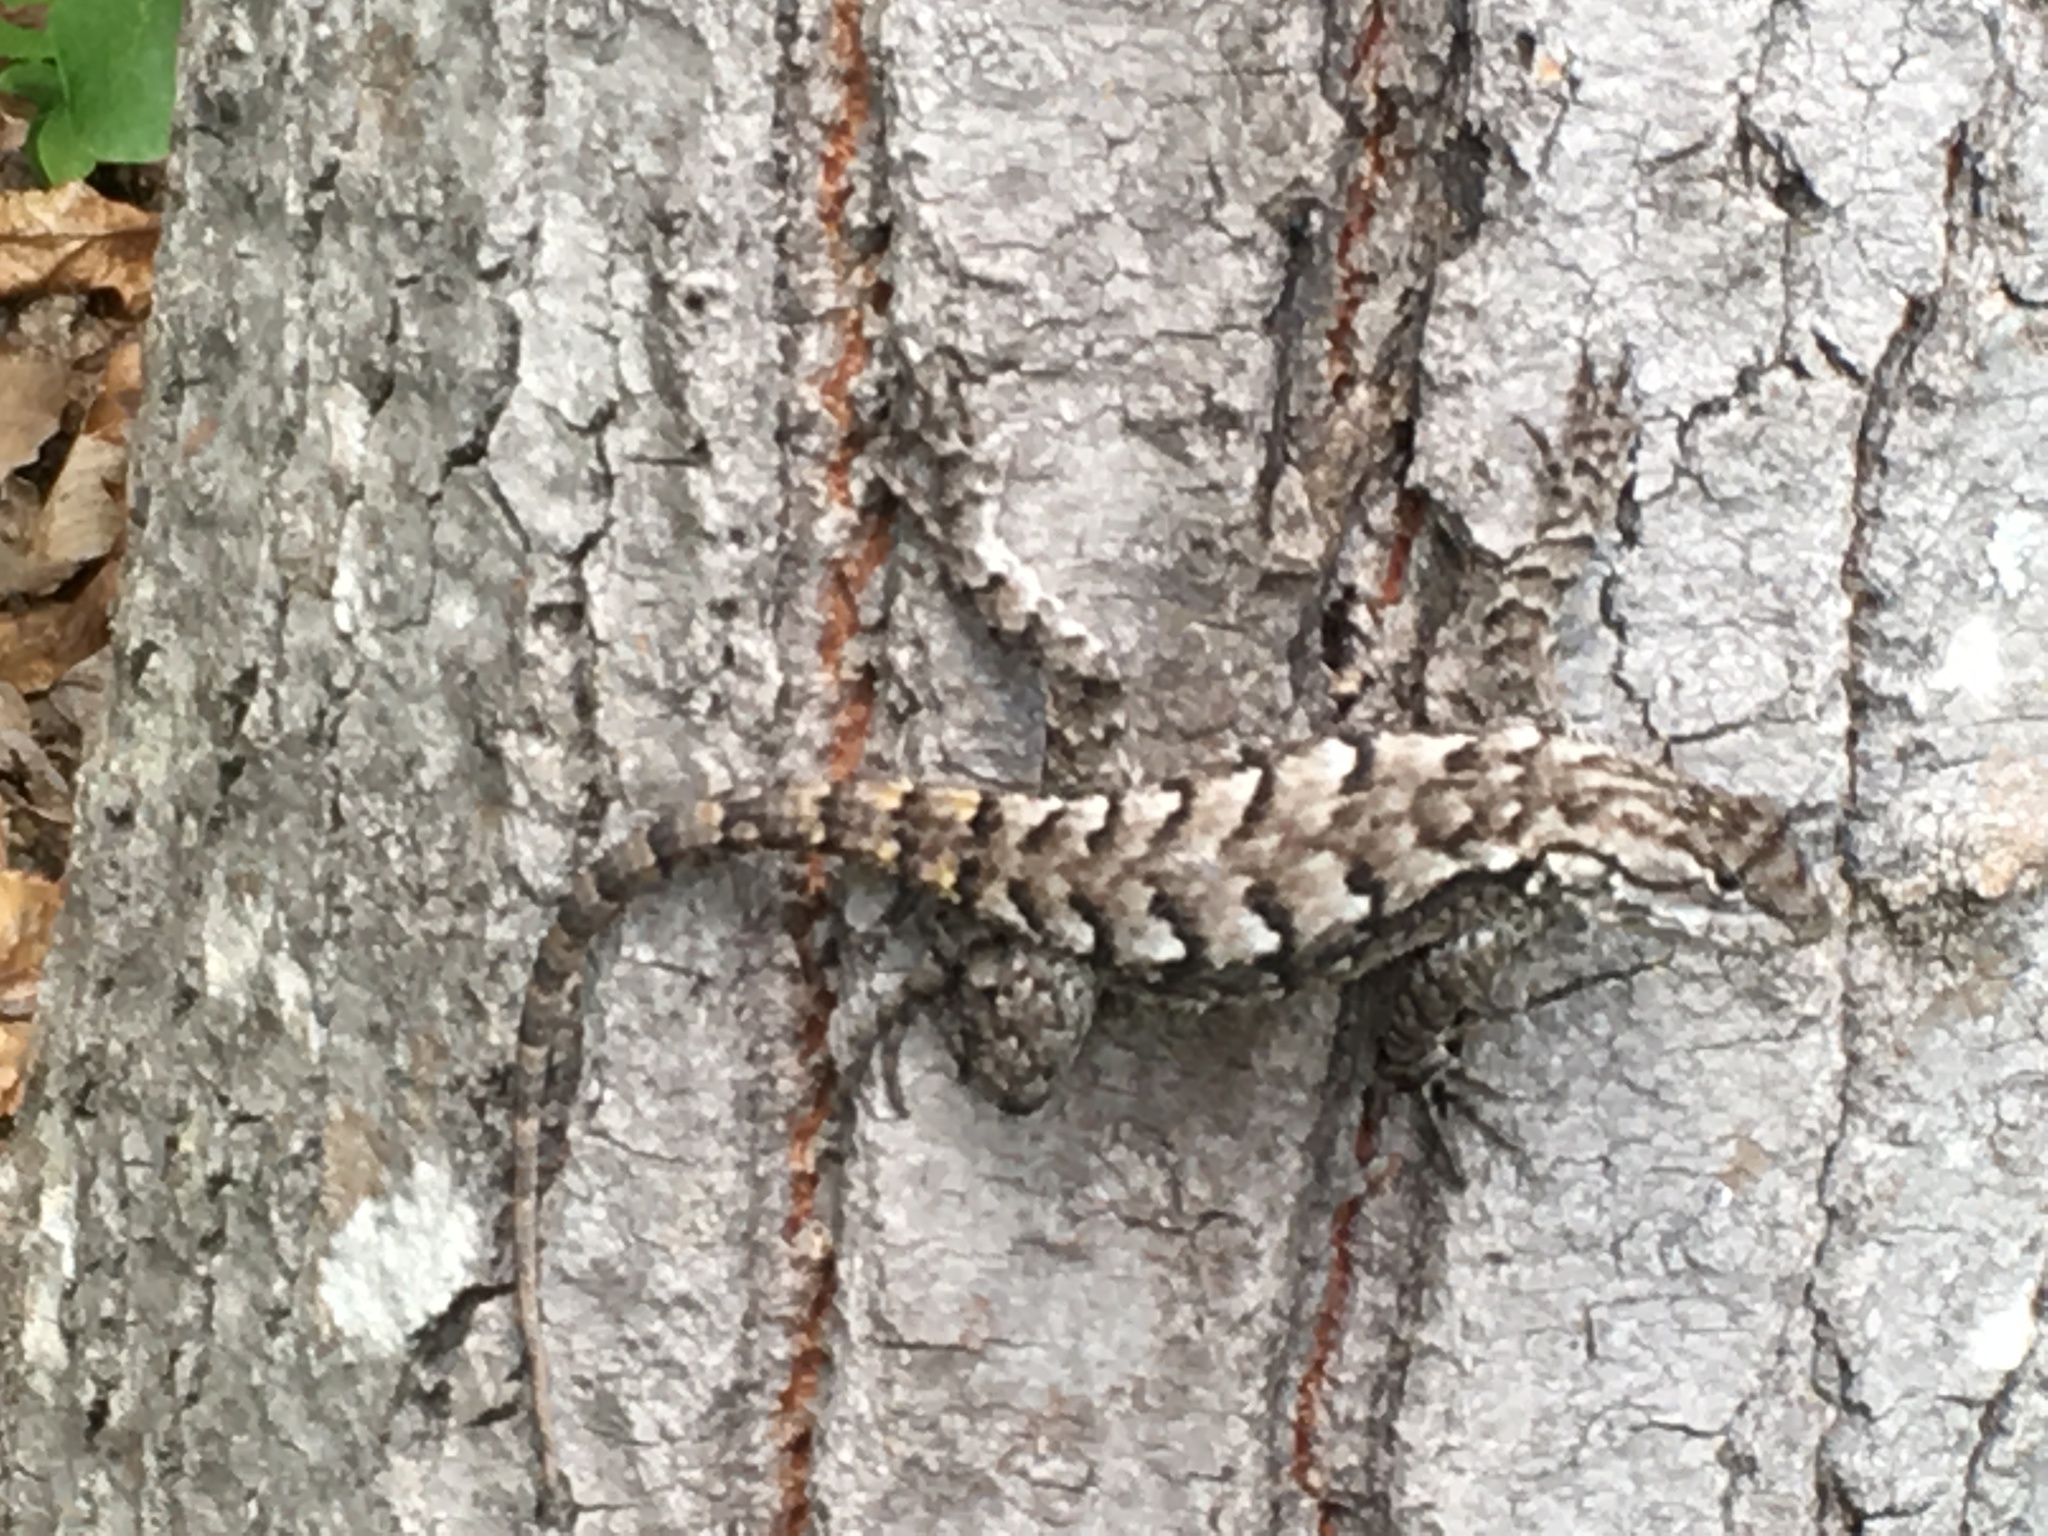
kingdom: Animalia
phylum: Chordata
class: Squamata
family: Phrynosomatidae
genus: Sceloporus
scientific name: Sceloporus undulatus
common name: Eastern fence lizard
